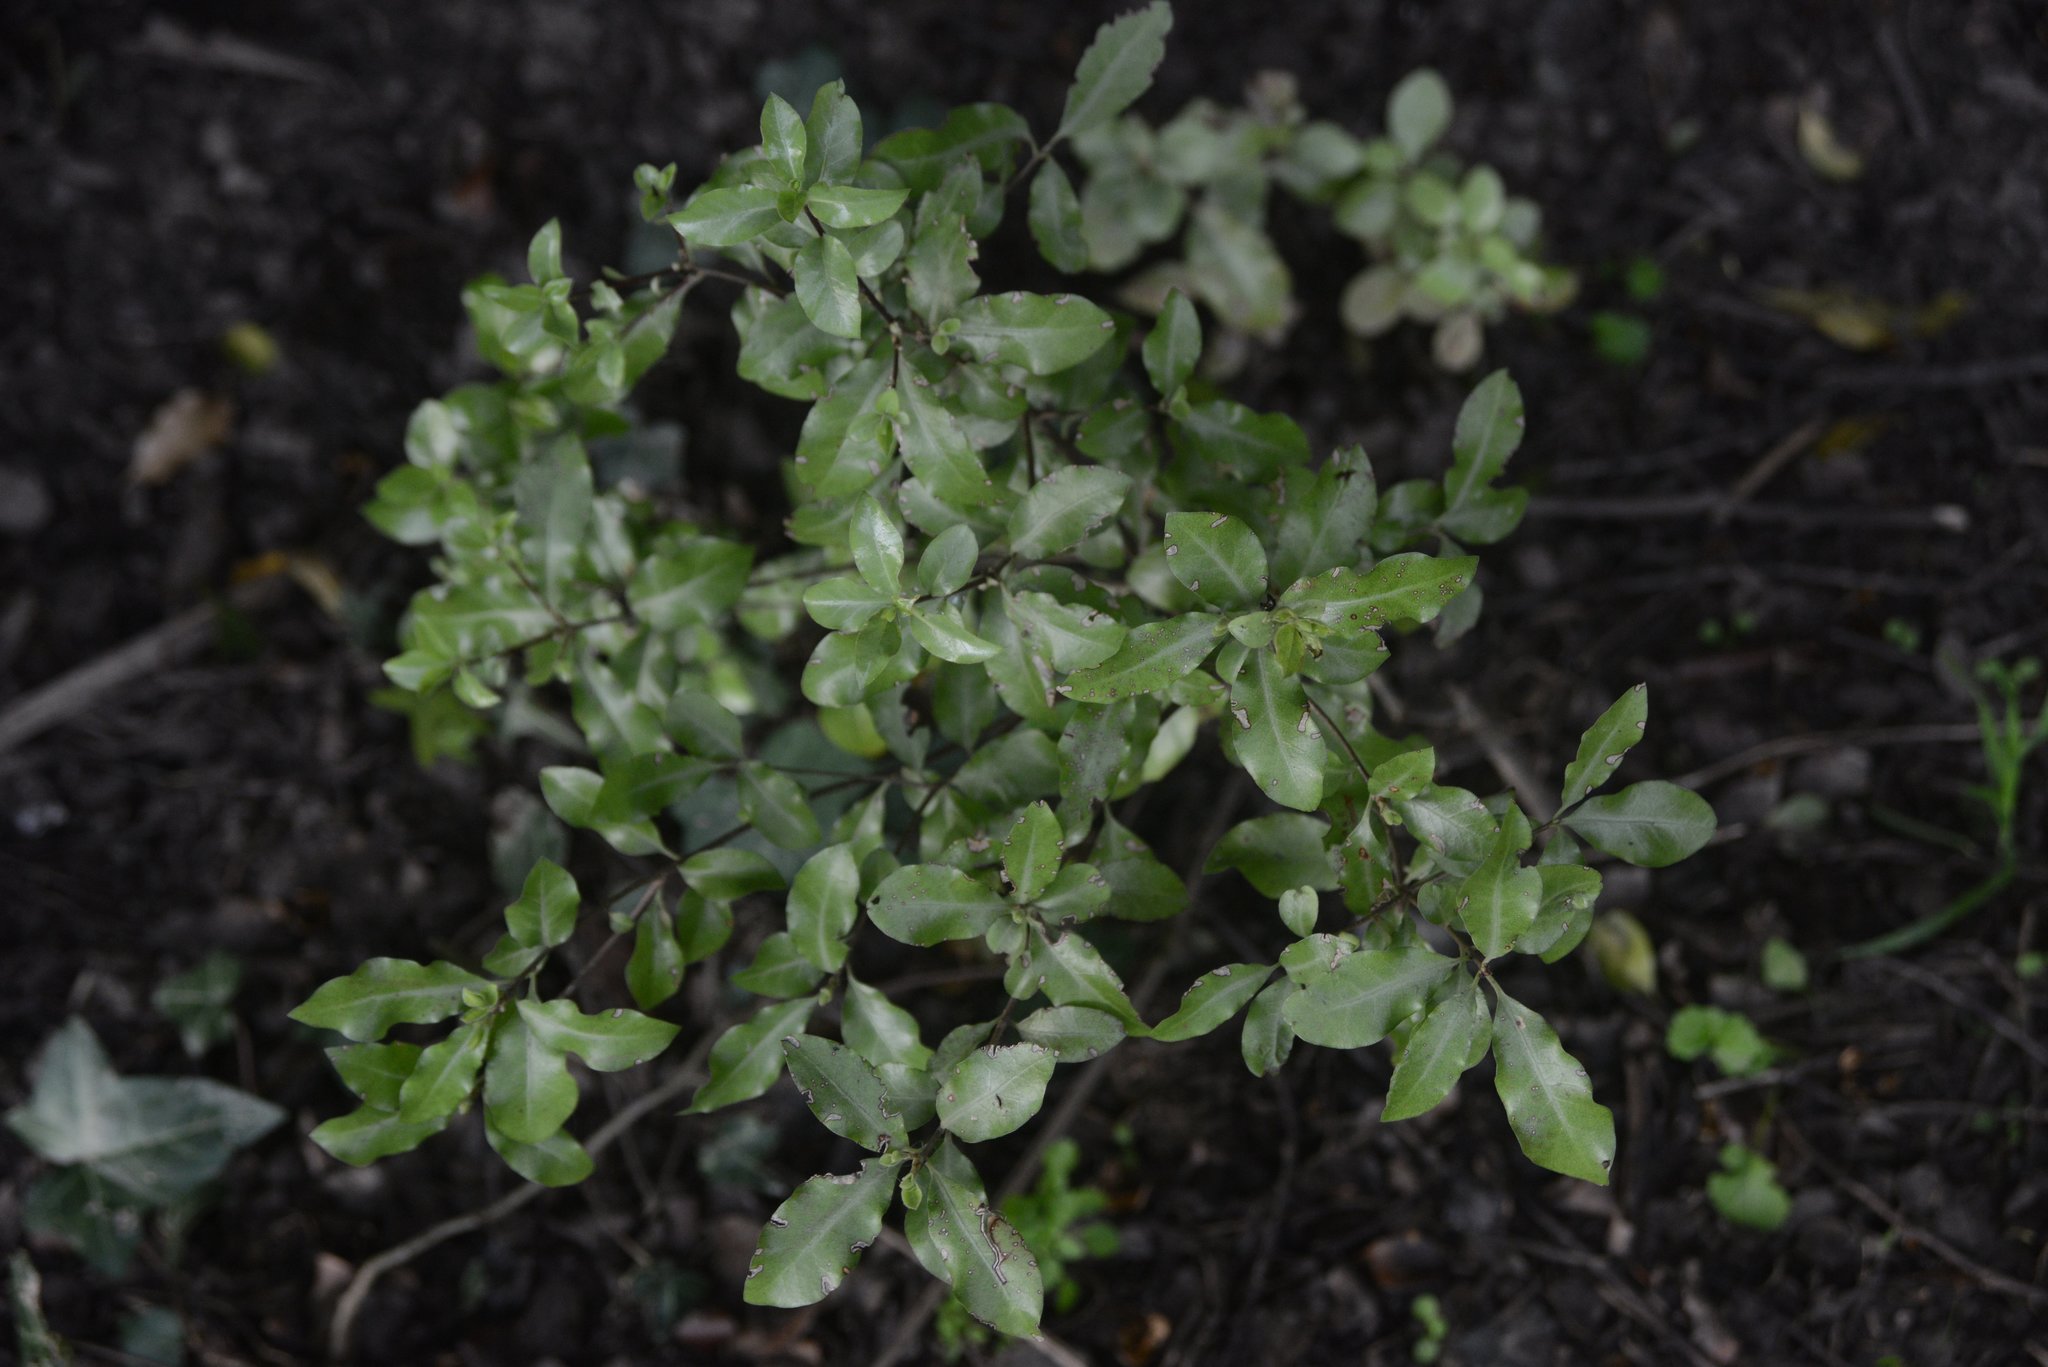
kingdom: Plantae
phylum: Tracheophyta
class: Magnoliopsida
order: Apiales
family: Pittosporaceae
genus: Pittosporum
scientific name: Pittosporum tenuifolium
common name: Kohuhu
